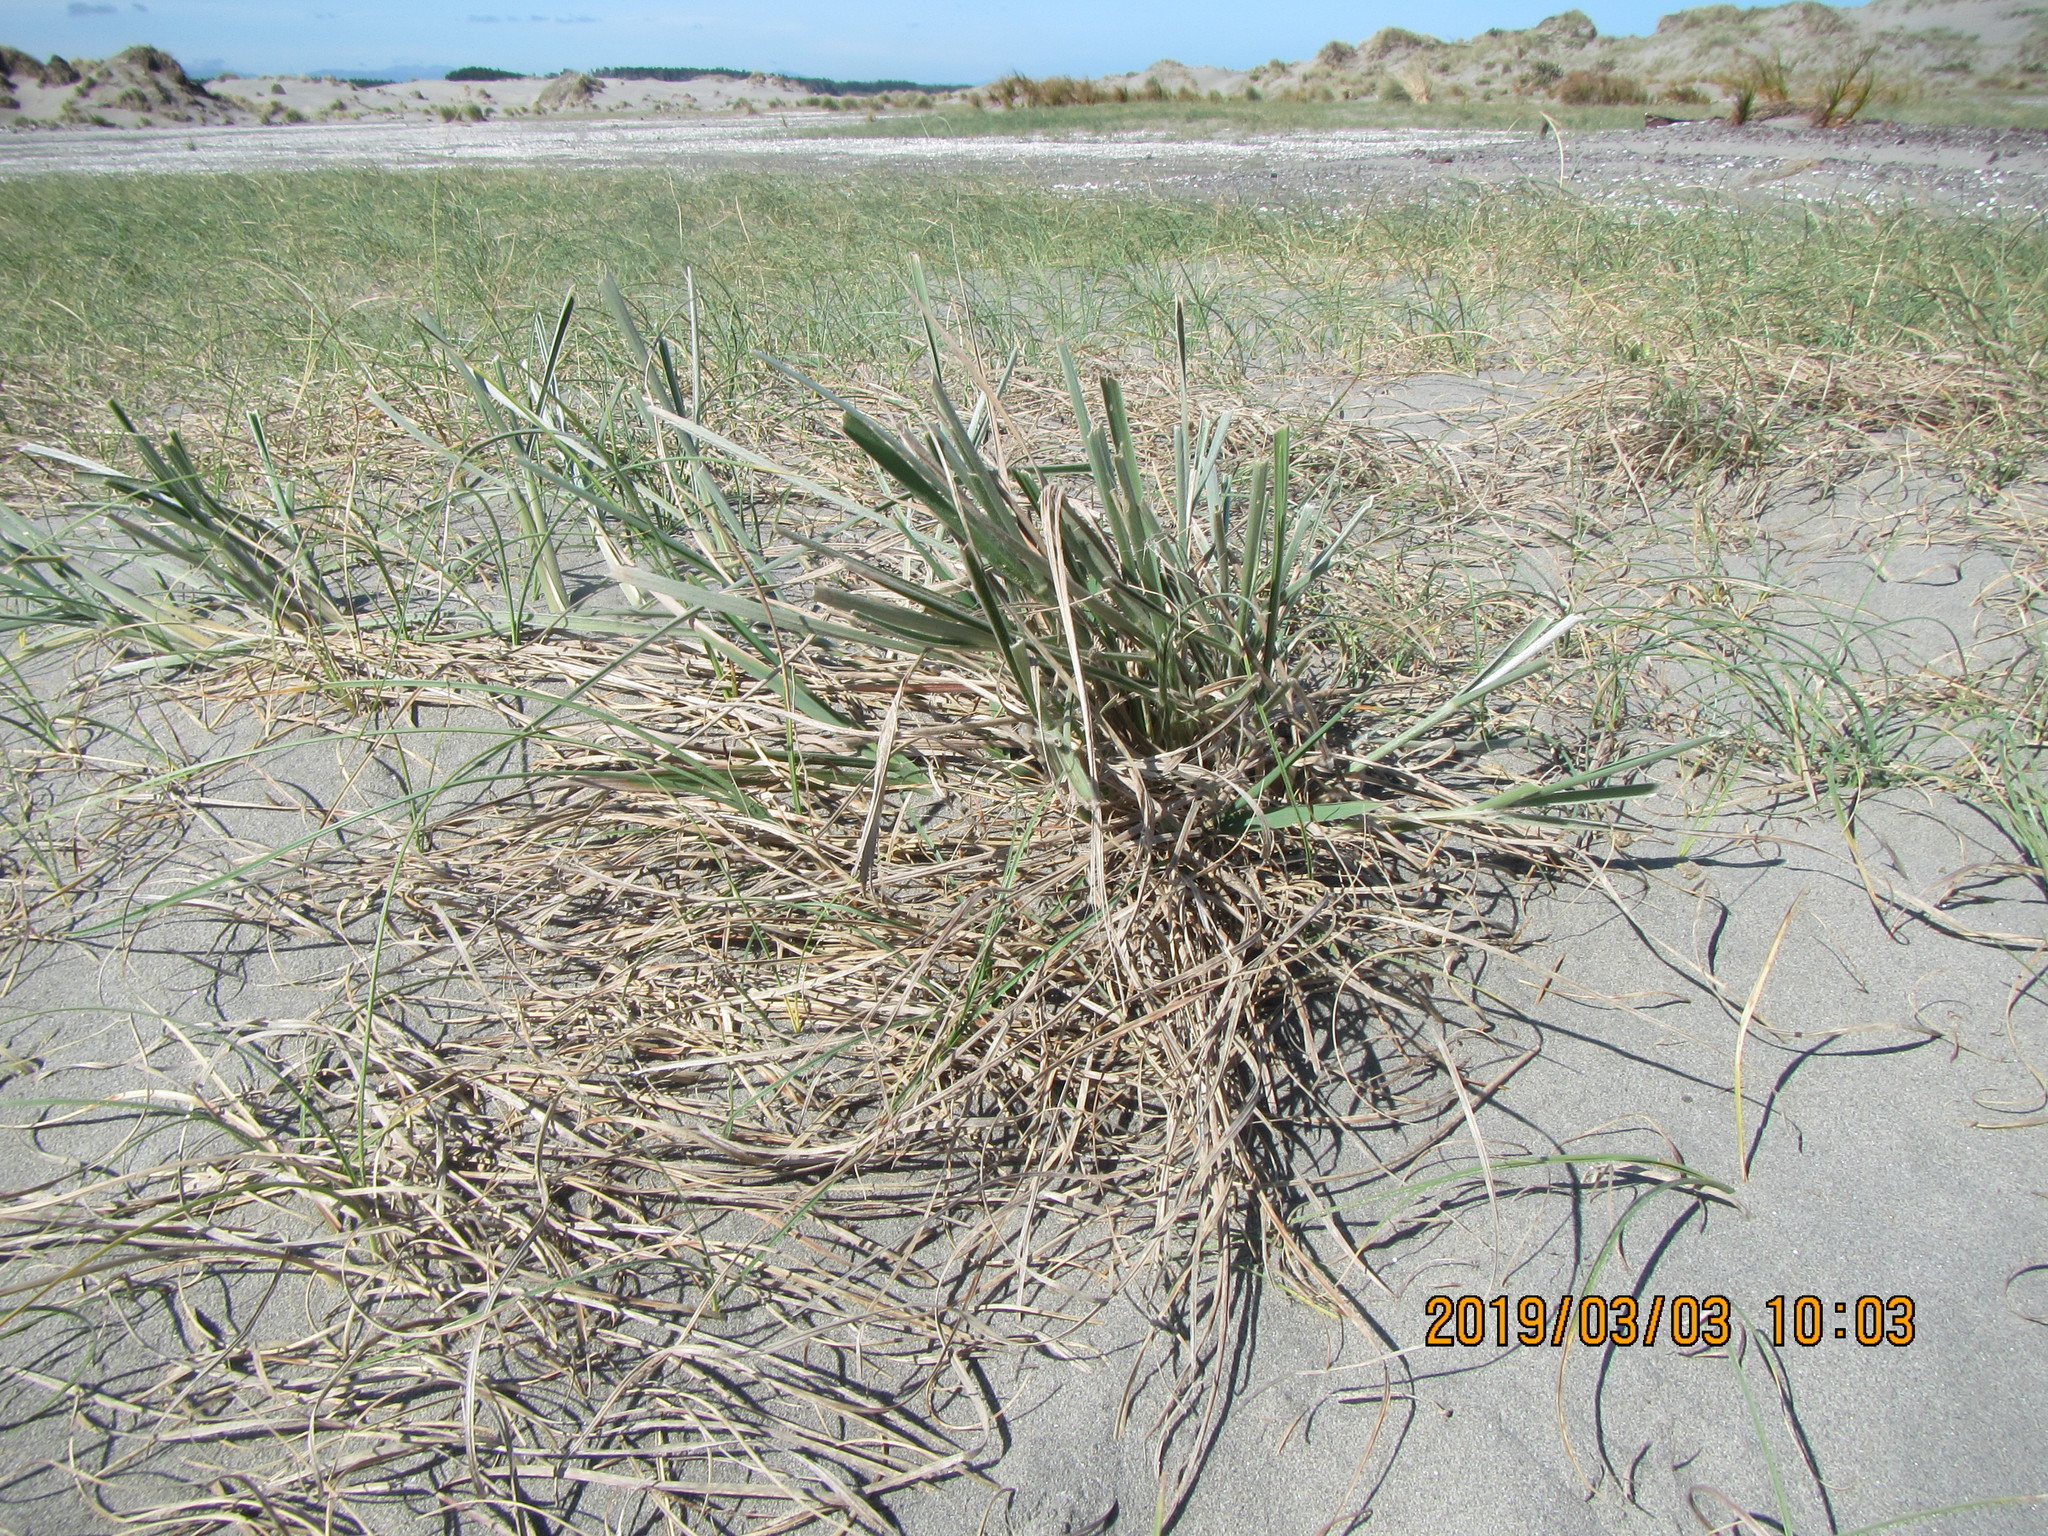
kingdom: Plantae
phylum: Tracheophyta
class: Liliopsida
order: Poales
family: Poaceae
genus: Spinifex
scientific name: Spinifex sericeus
